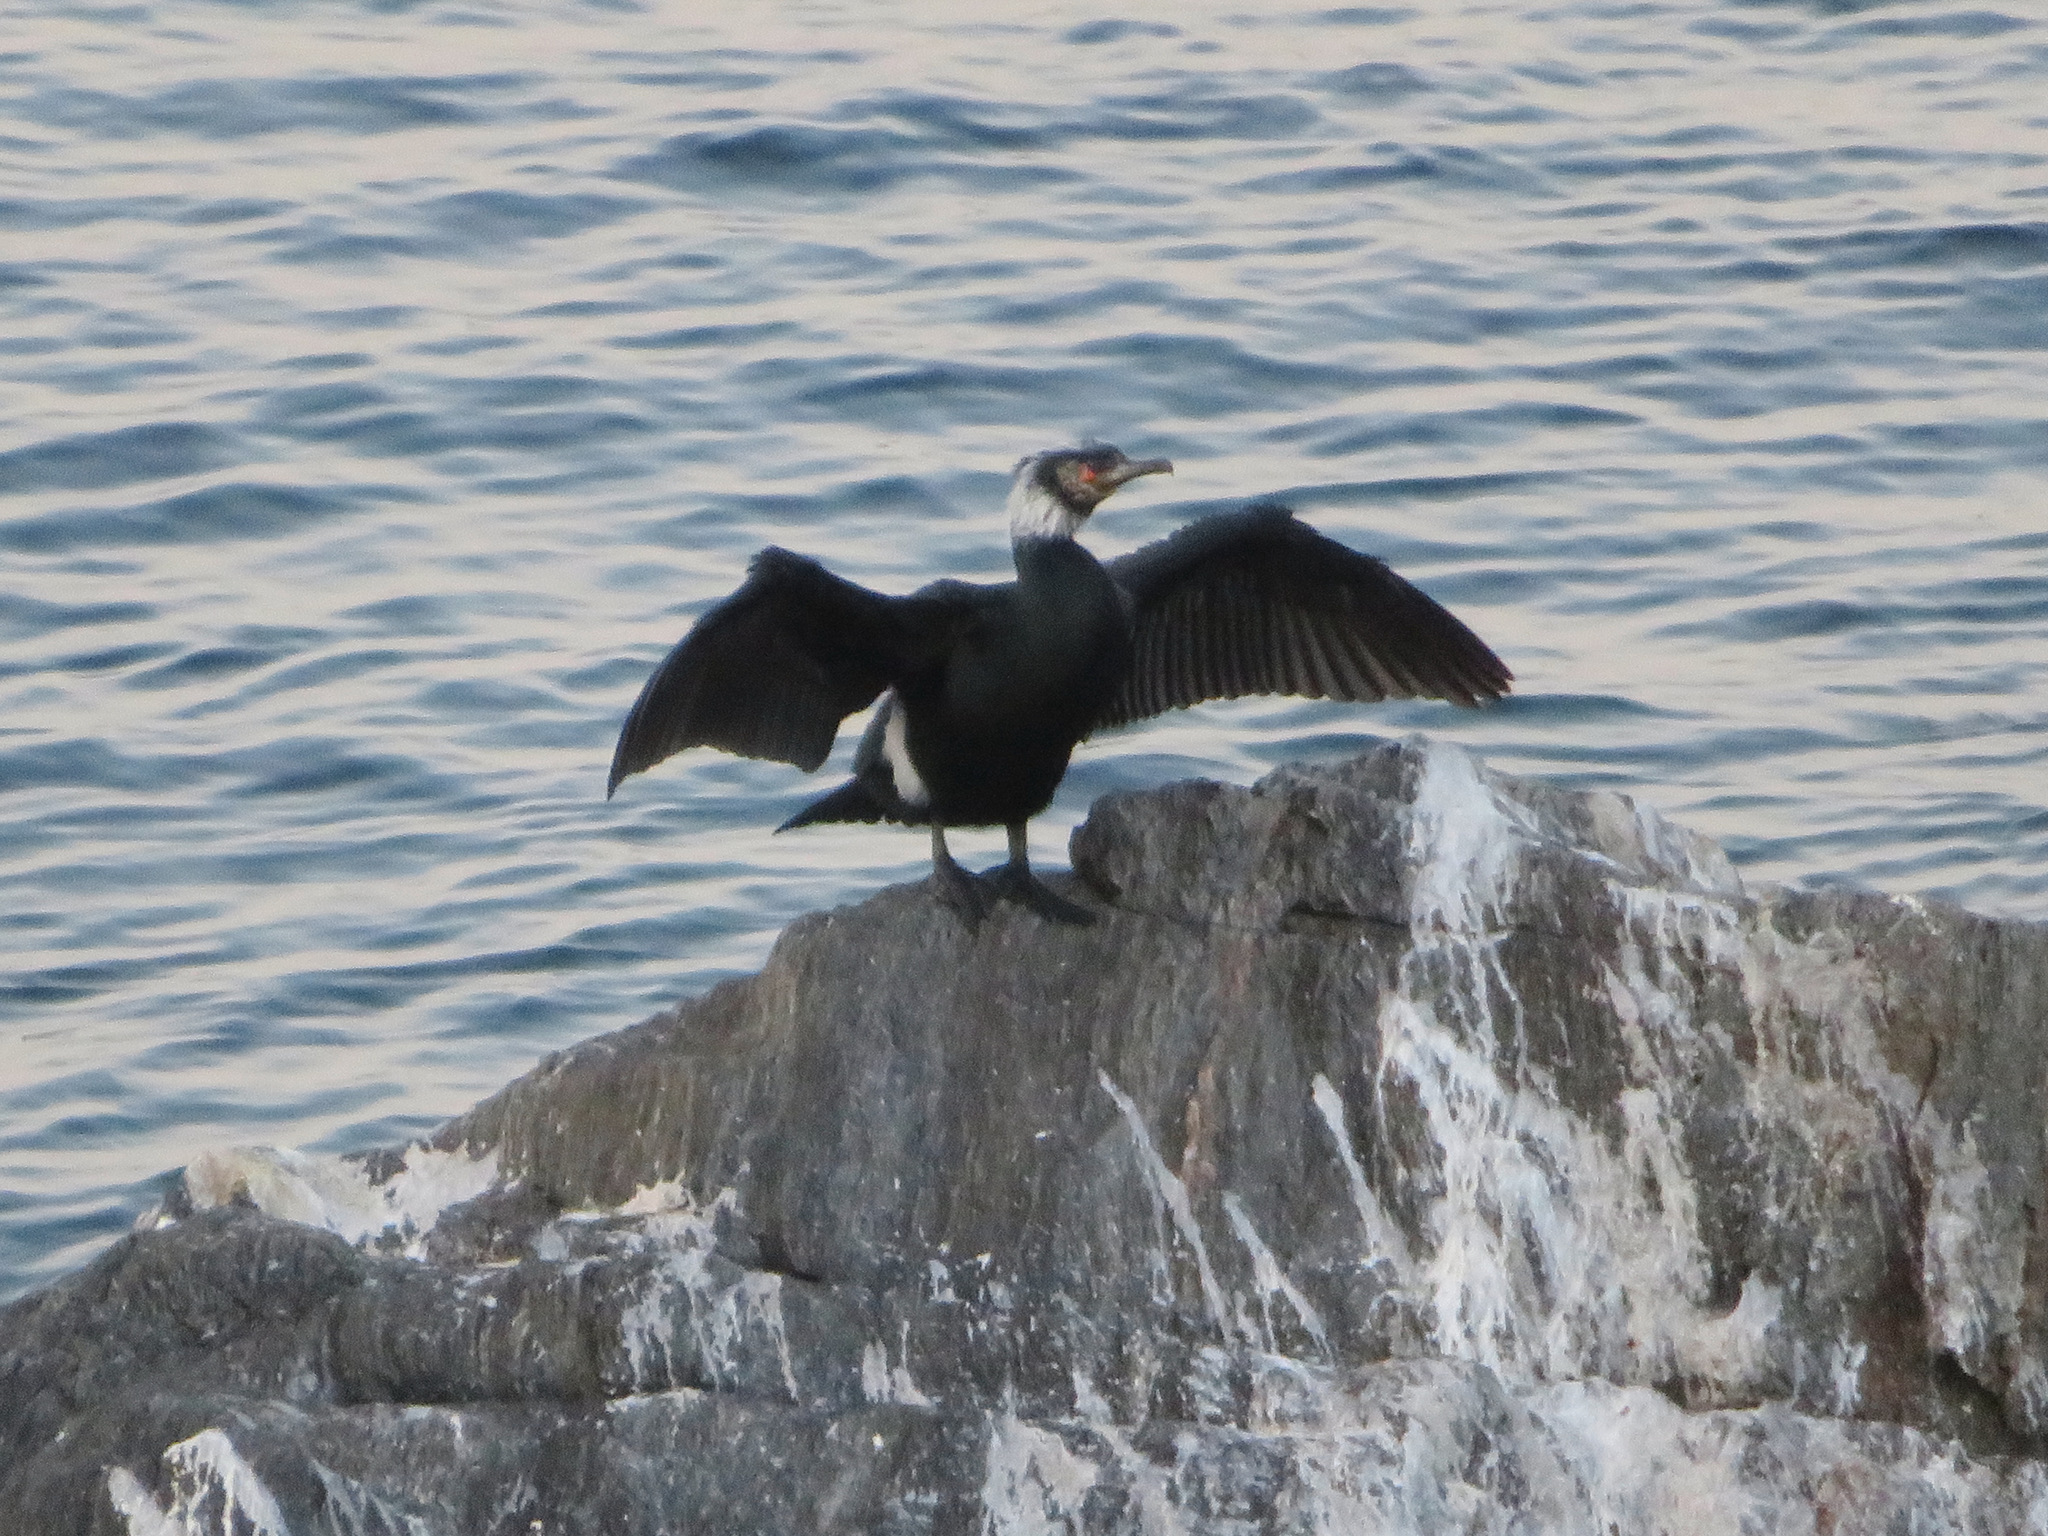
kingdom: Animalia
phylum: Chordata
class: Aves
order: Suliformes
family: Phalacrocoracidae
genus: Phalacrocorax
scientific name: Phalacrocorax capillatus
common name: Japanese cormorant
